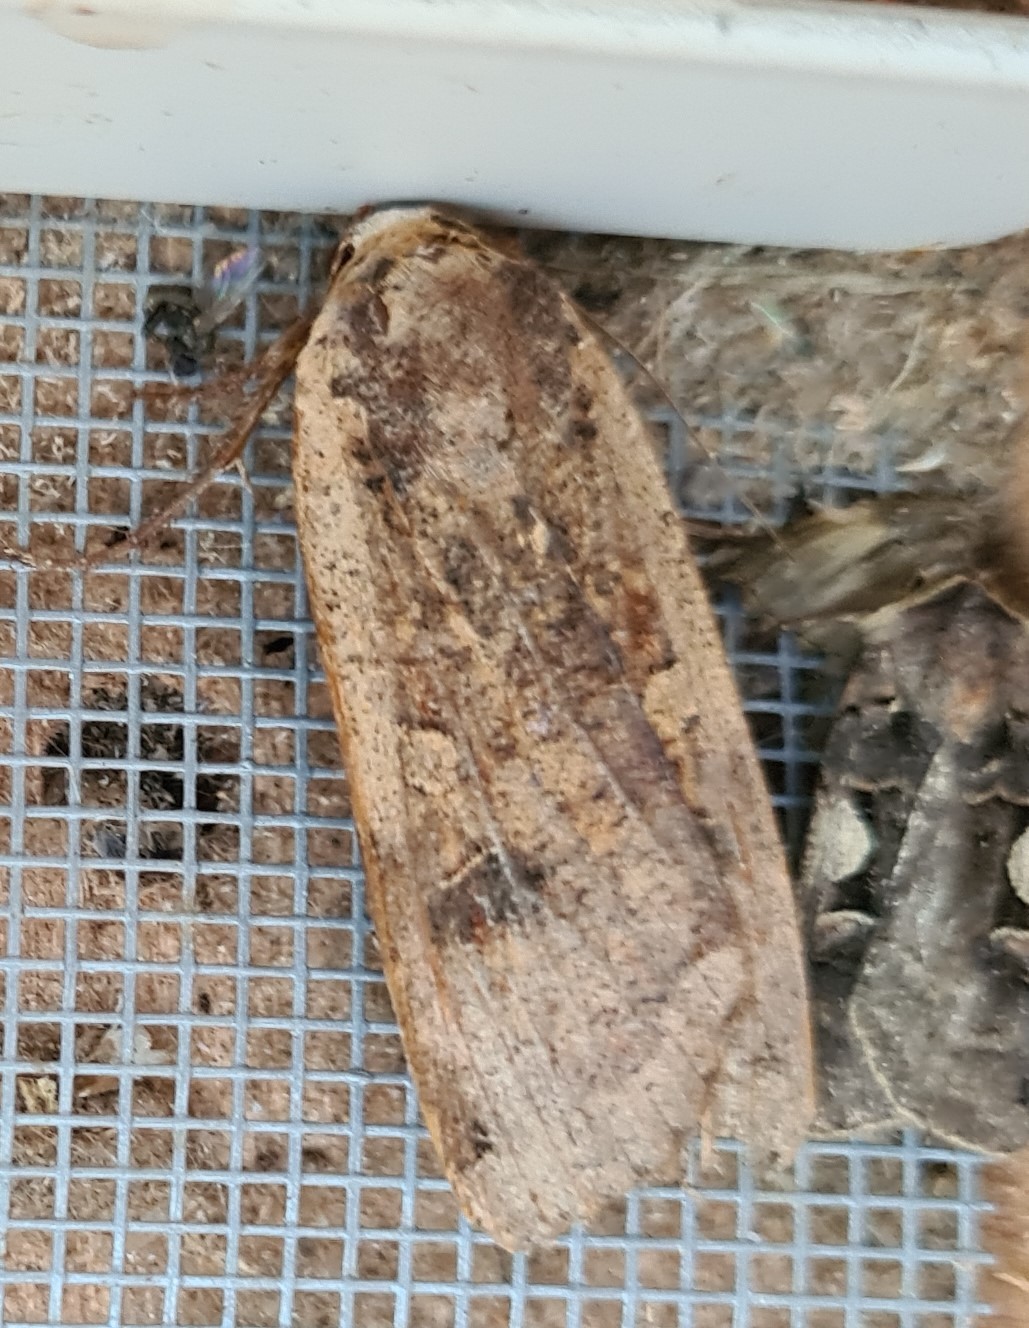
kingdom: Animalia
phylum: Arthropoda
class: Insecta
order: Lepidoptera
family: Noctuidae
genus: Noctua
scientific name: Noctua pronuba
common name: Large yellow underwing
